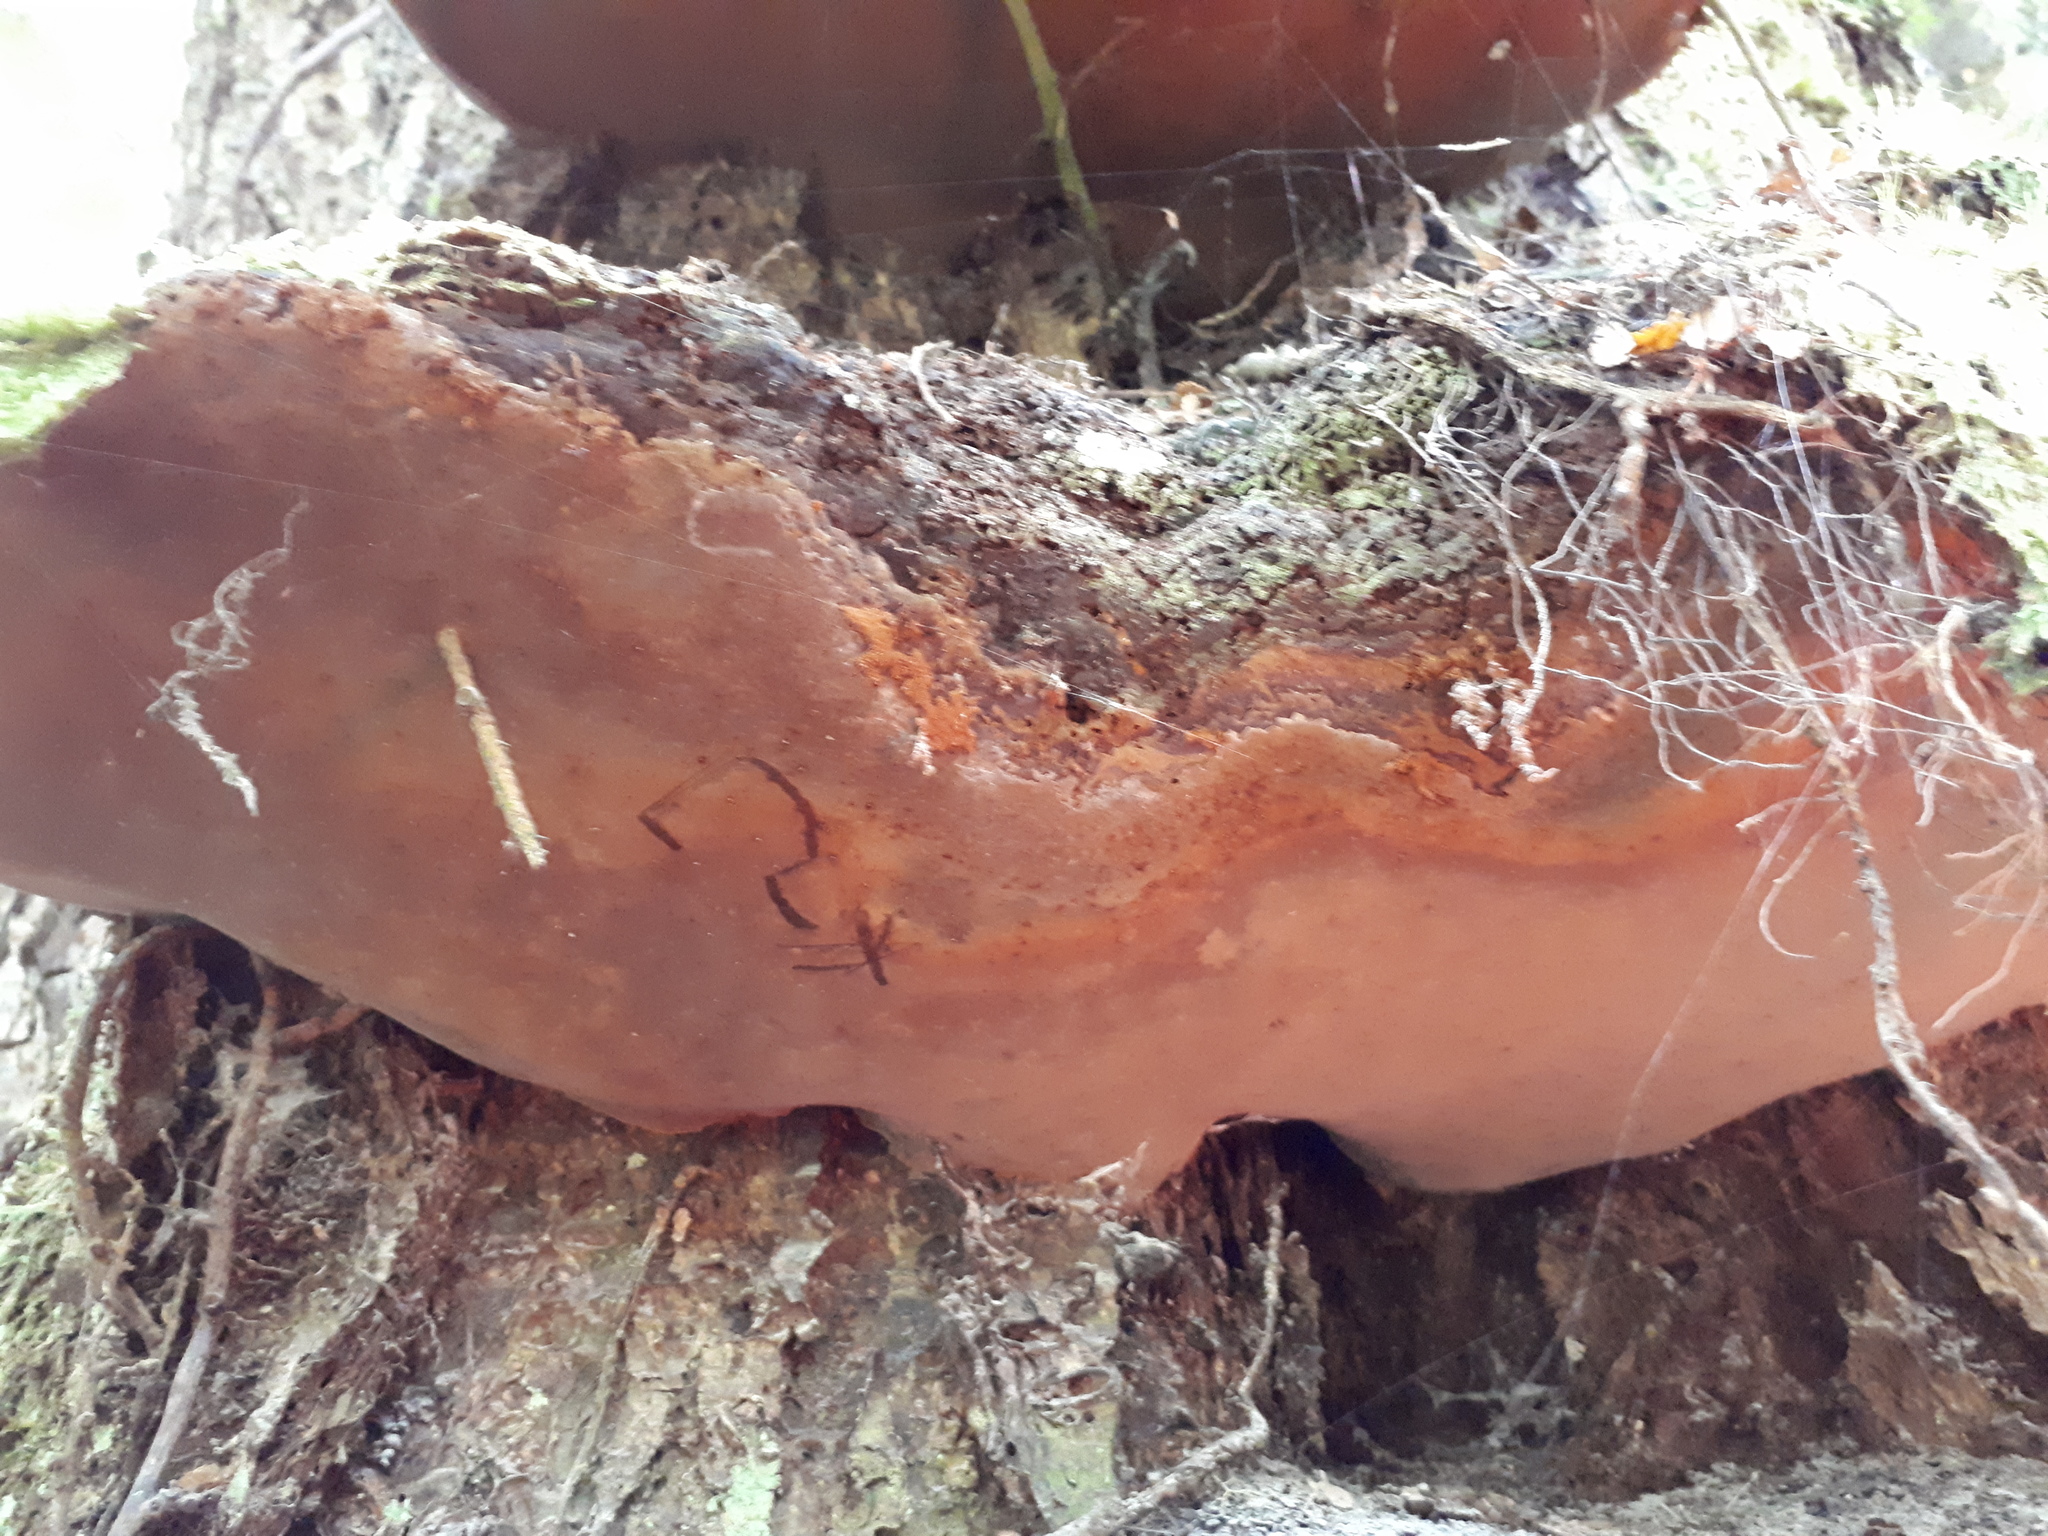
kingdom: Fungi
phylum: Basidiomycota
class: Agaricomycetes
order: Hymenochaetales
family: Hymenochaetaceae
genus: Fuscoporia
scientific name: Fuscoporia wahlbergii
